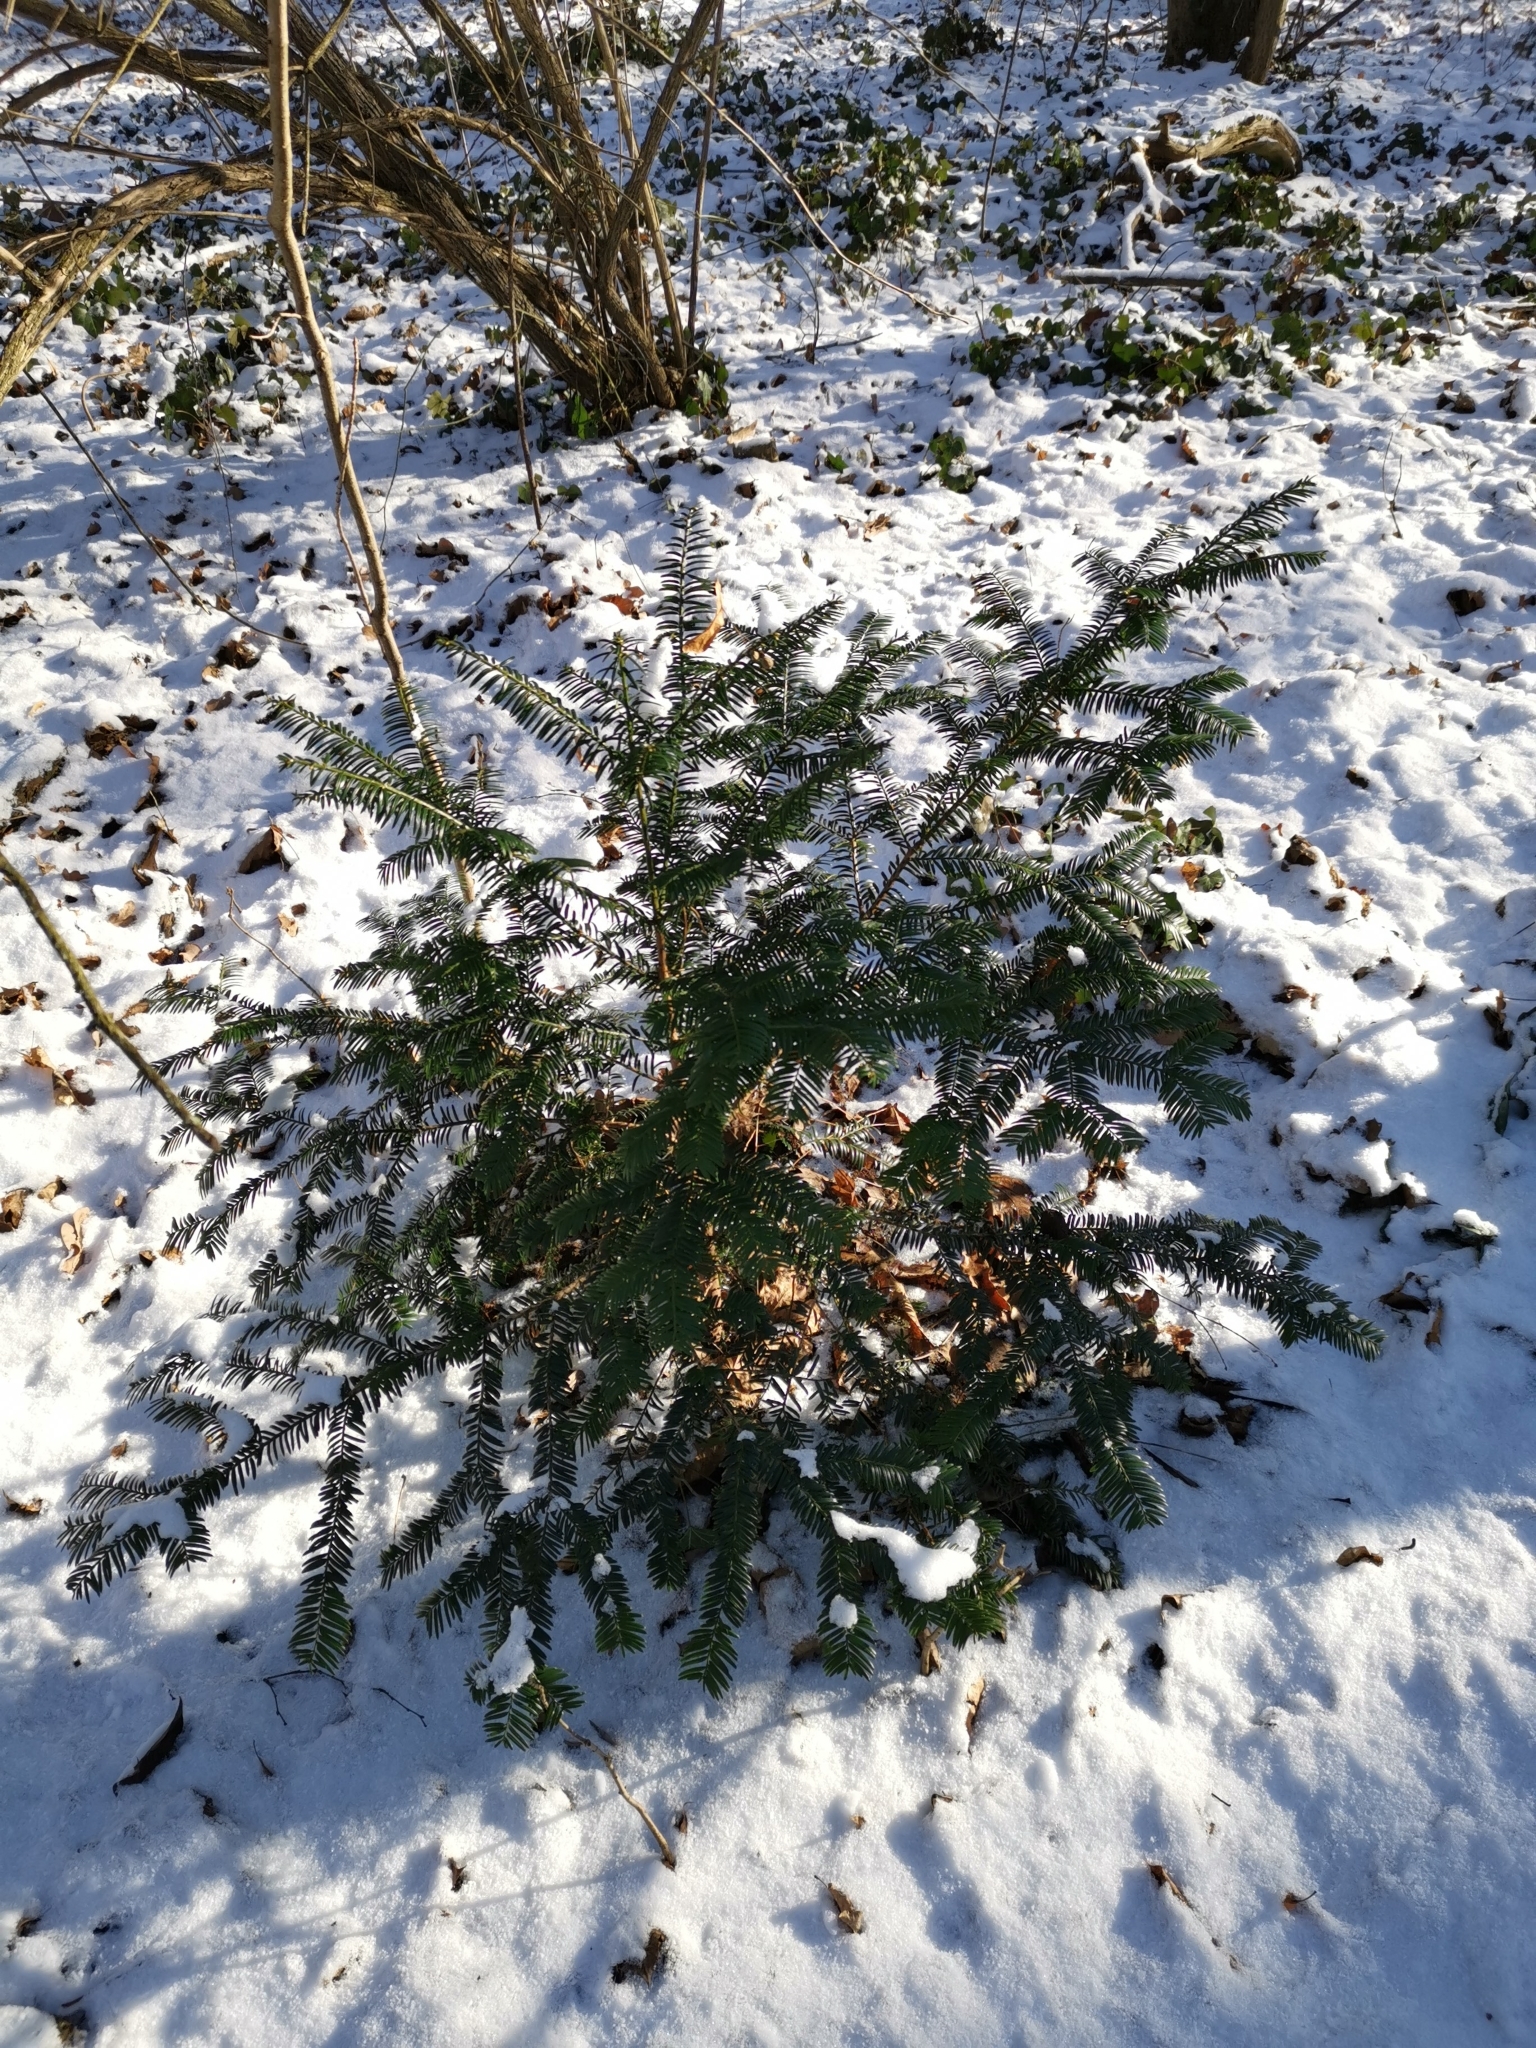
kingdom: Plantae
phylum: Tracheophyta
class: Pinopsida
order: Pinales
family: Taxaceae
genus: Taxus
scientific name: Taxus baccata
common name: Yew
